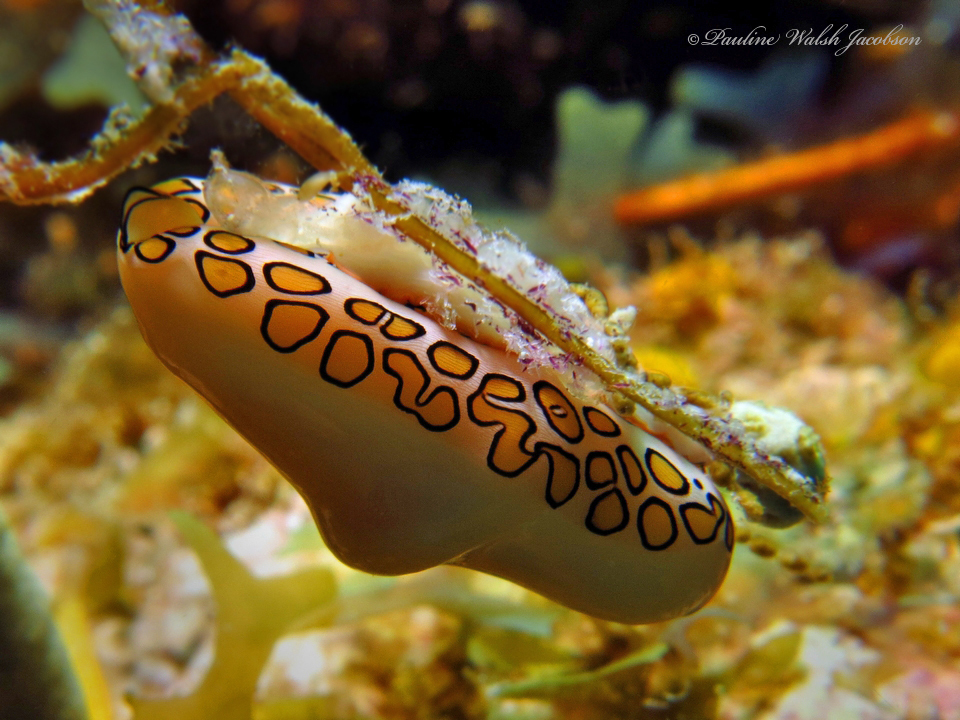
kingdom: Animalia
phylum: Mollusca
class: Gastropoda
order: Littorinimorpha
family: Ovulidae
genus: Cyphoma
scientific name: Cyphoma gibbosum
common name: Flamingo tongue
